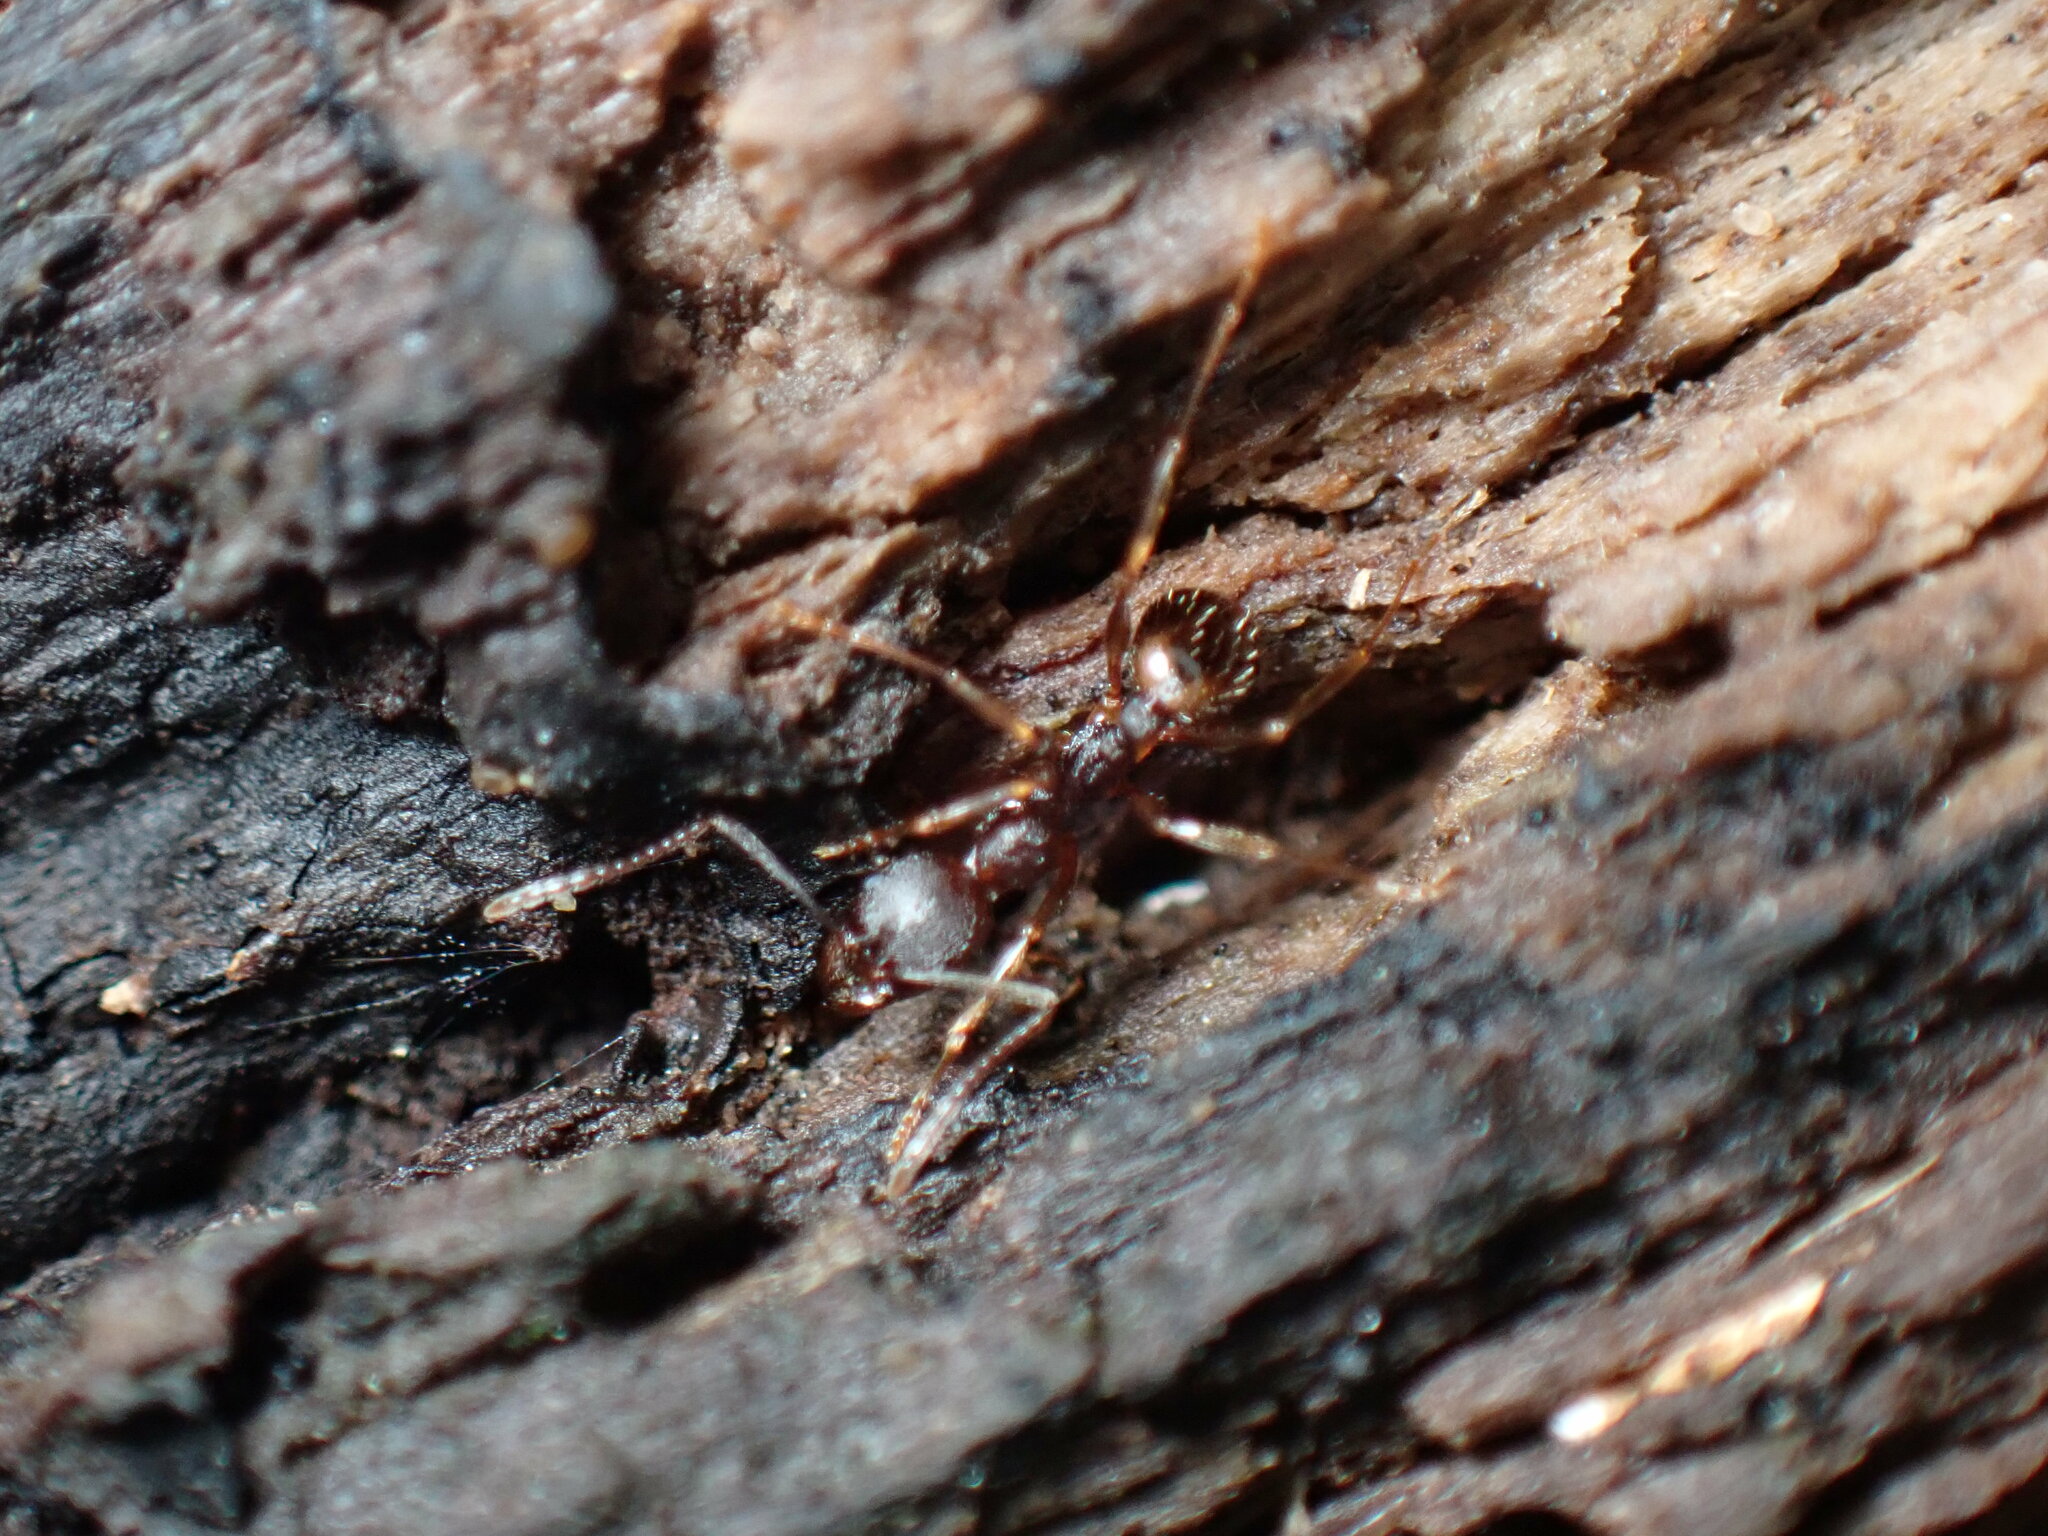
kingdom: Animalia
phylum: Arthropoda
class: Insecta
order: Hymenoptera
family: Formicidae
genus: Aphaenogaster
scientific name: Aphaenogaster rudis
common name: Winnow ant
